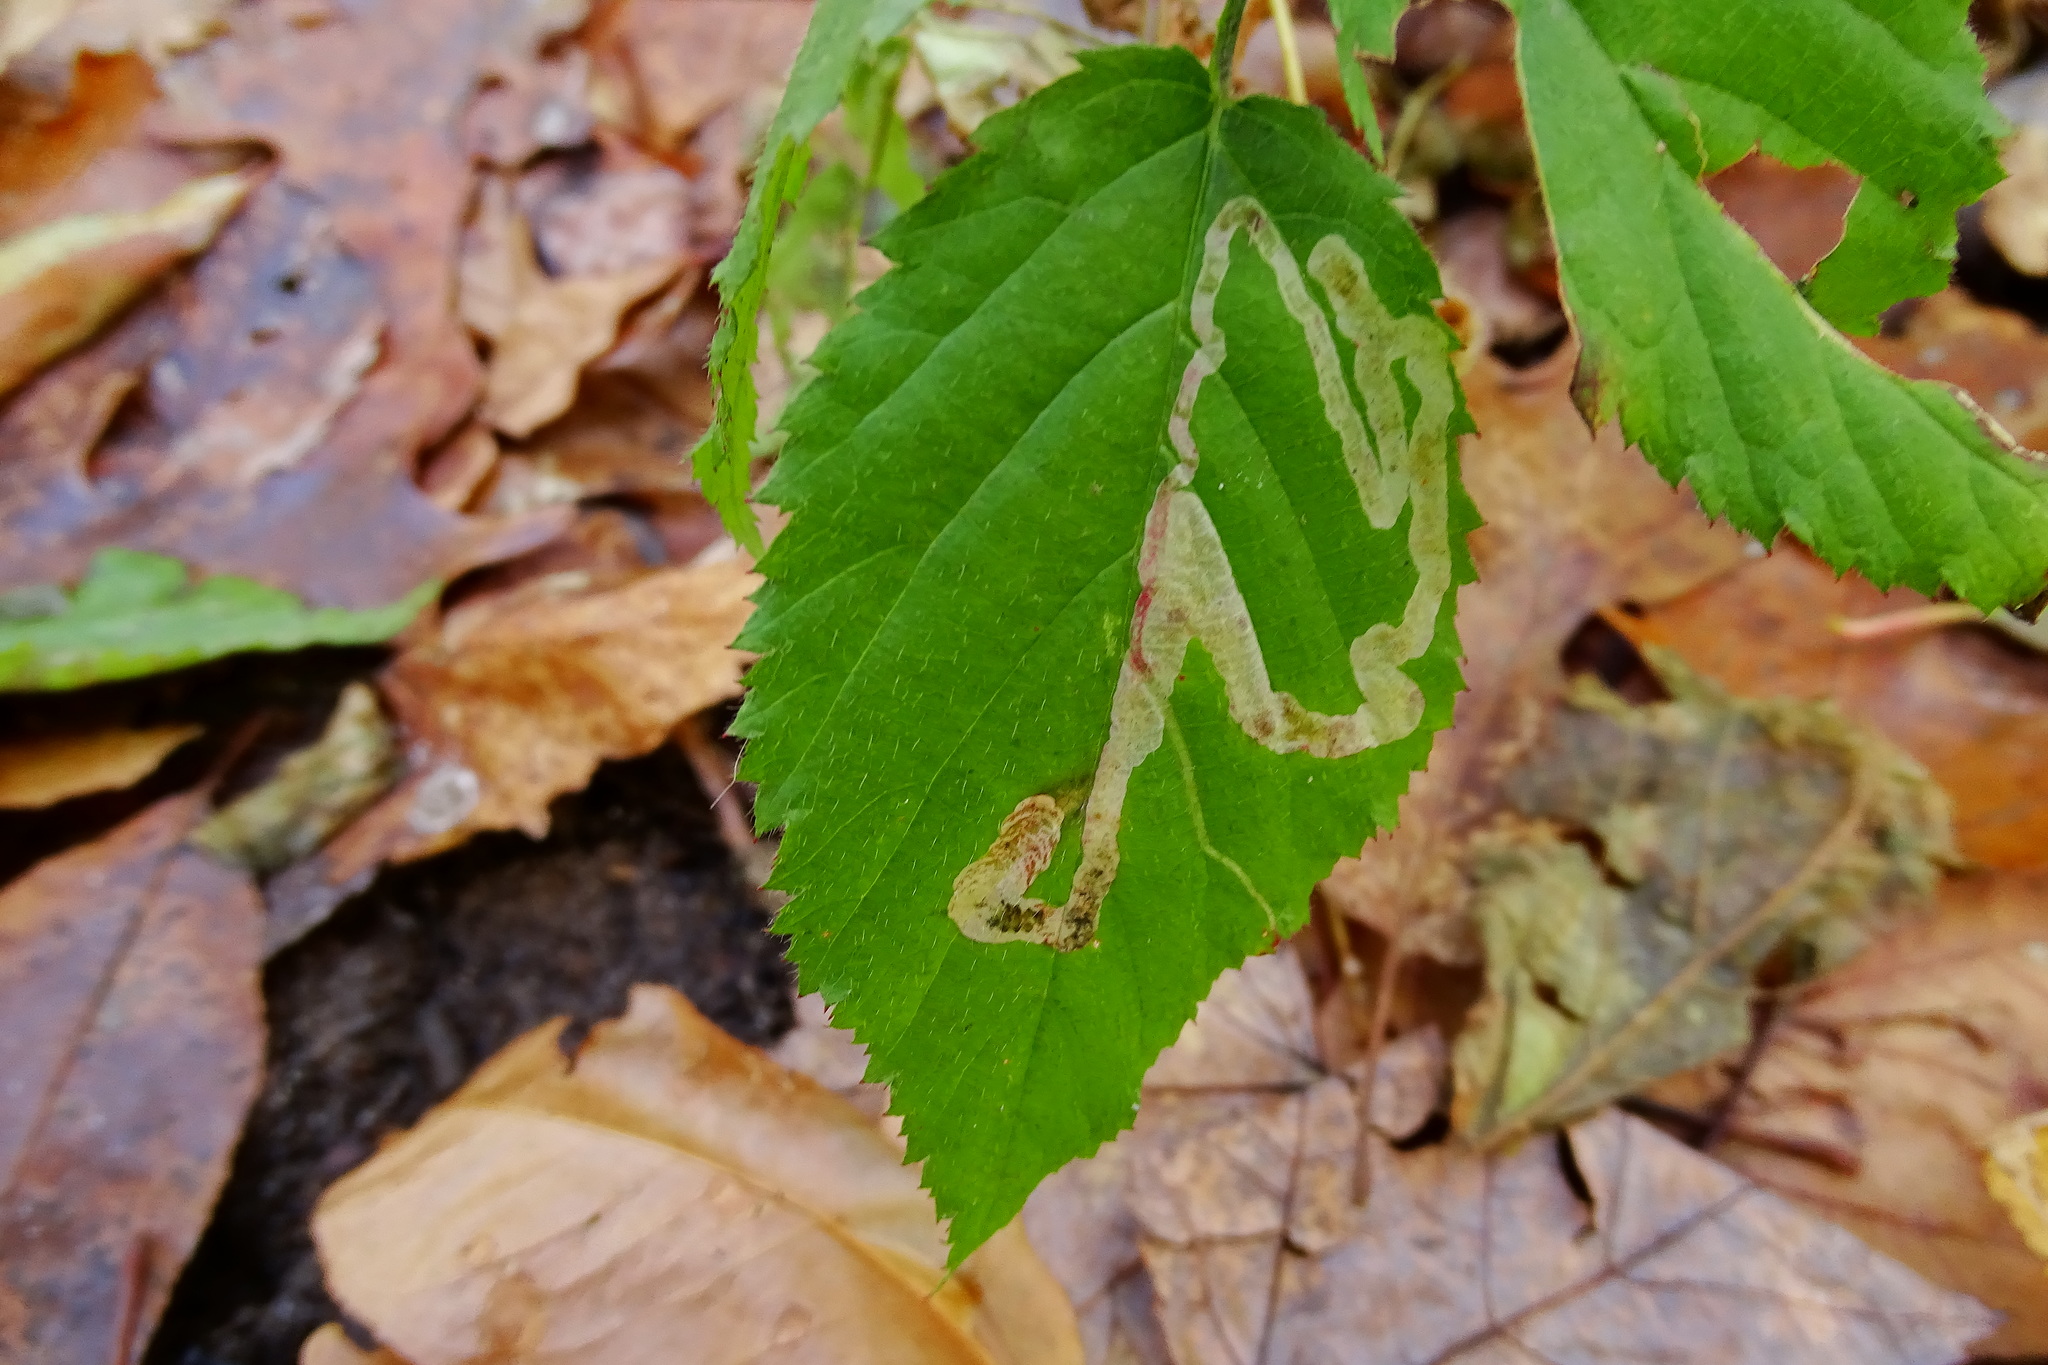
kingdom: Animalia
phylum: Arthropoda
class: Insecta
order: Diptera
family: Agromyzidae
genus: Agromyza
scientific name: Agromyza vockerothi
